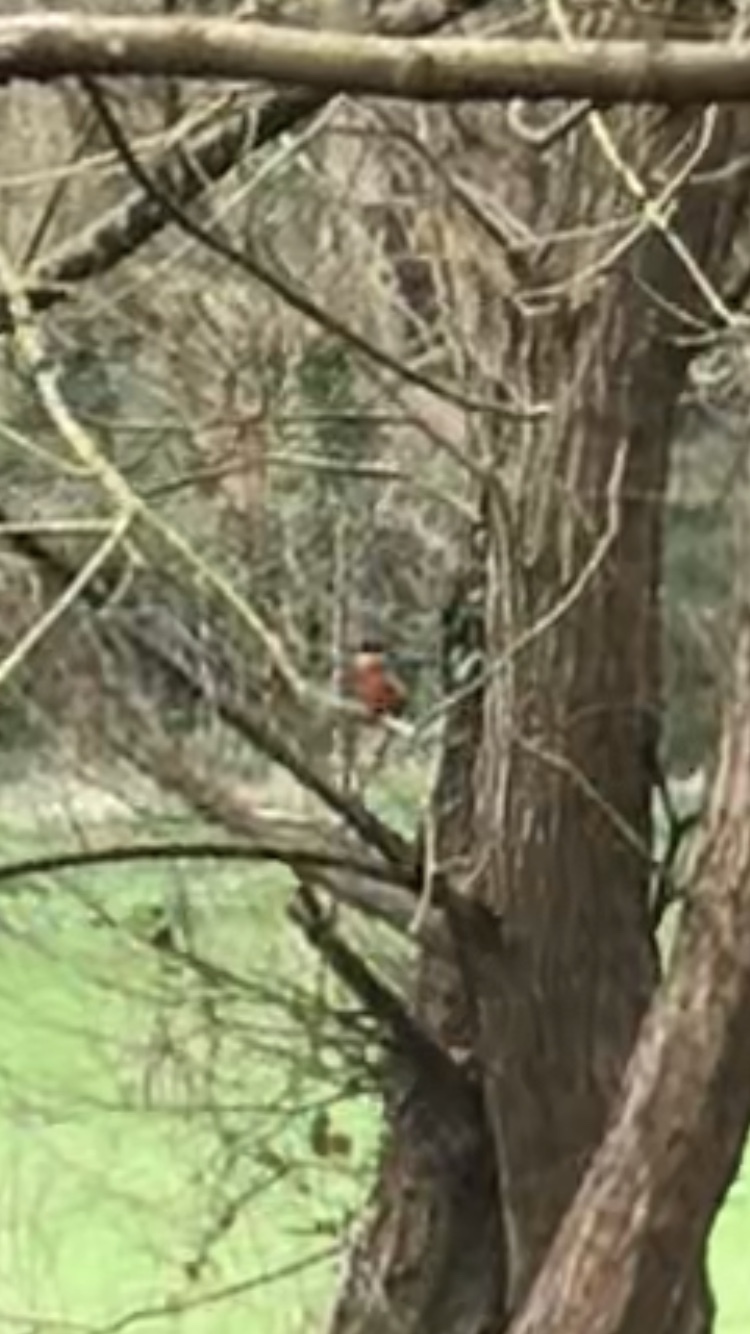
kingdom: Animalia
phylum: Chordata
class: Aves
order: Coraciiformes
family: Alcedinidae
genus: Alcedo
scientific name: Alcedo atthis
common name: Common kingfisher
